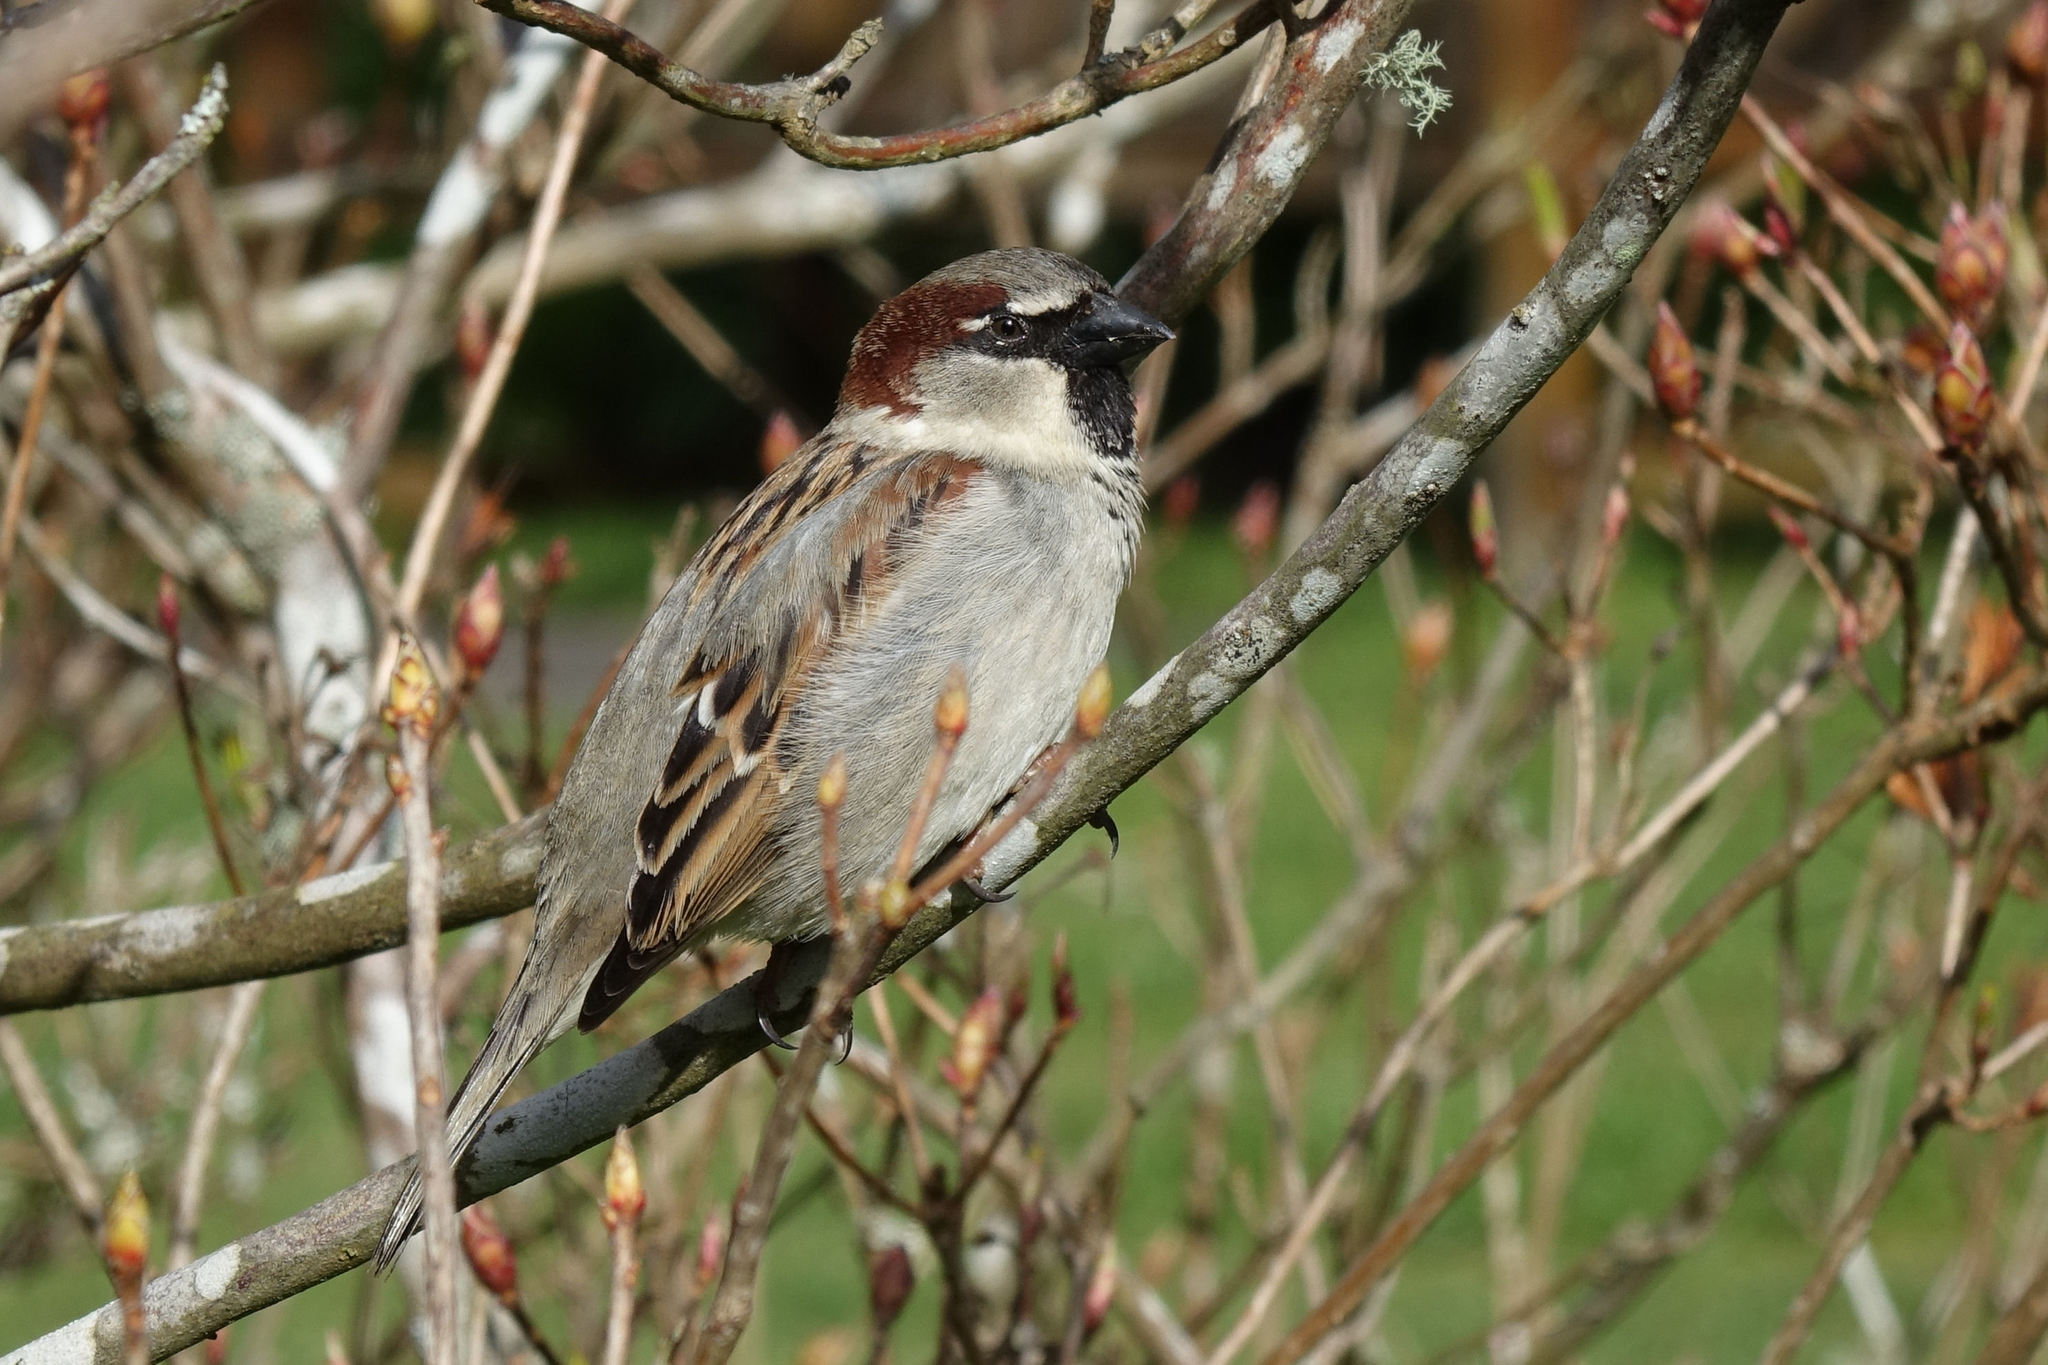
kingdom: Animalia
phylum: Chordata
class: Aves
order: Passeriformes
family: Passeridae
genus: Passer
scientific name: Passer domesticus
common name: House sparrow
